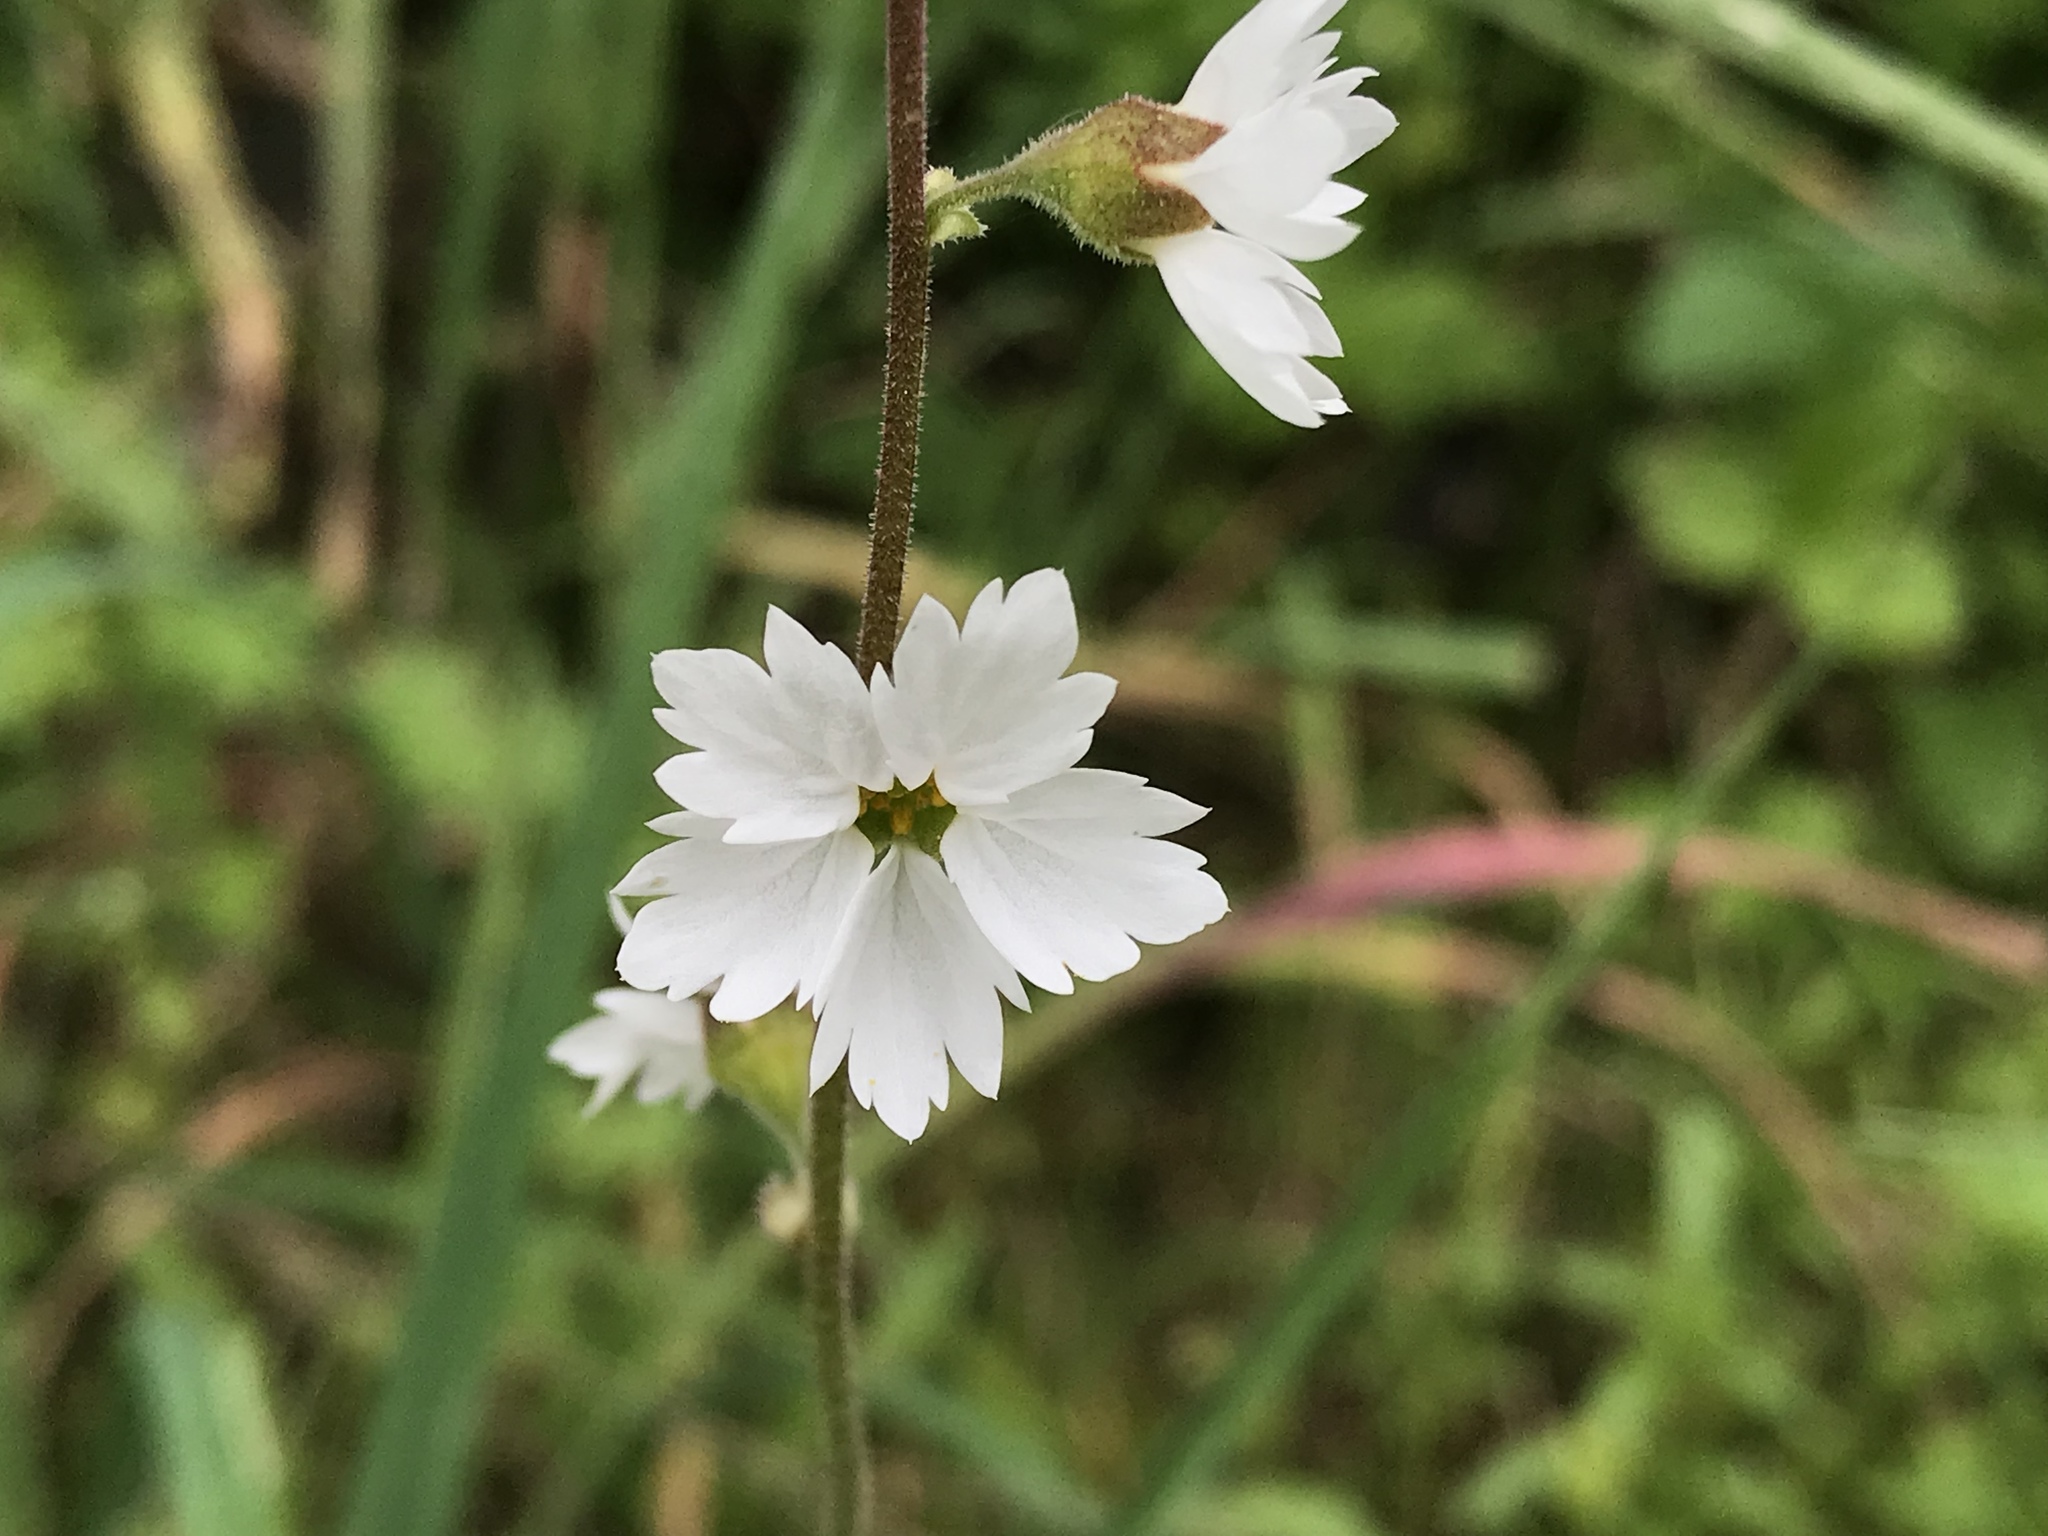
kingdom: Plantae
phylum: Tracheophyta
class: Magnoliopsida
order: Saxifragales
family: Saxifragaceae
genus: Lithophragma
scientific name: Lithophragma affine
